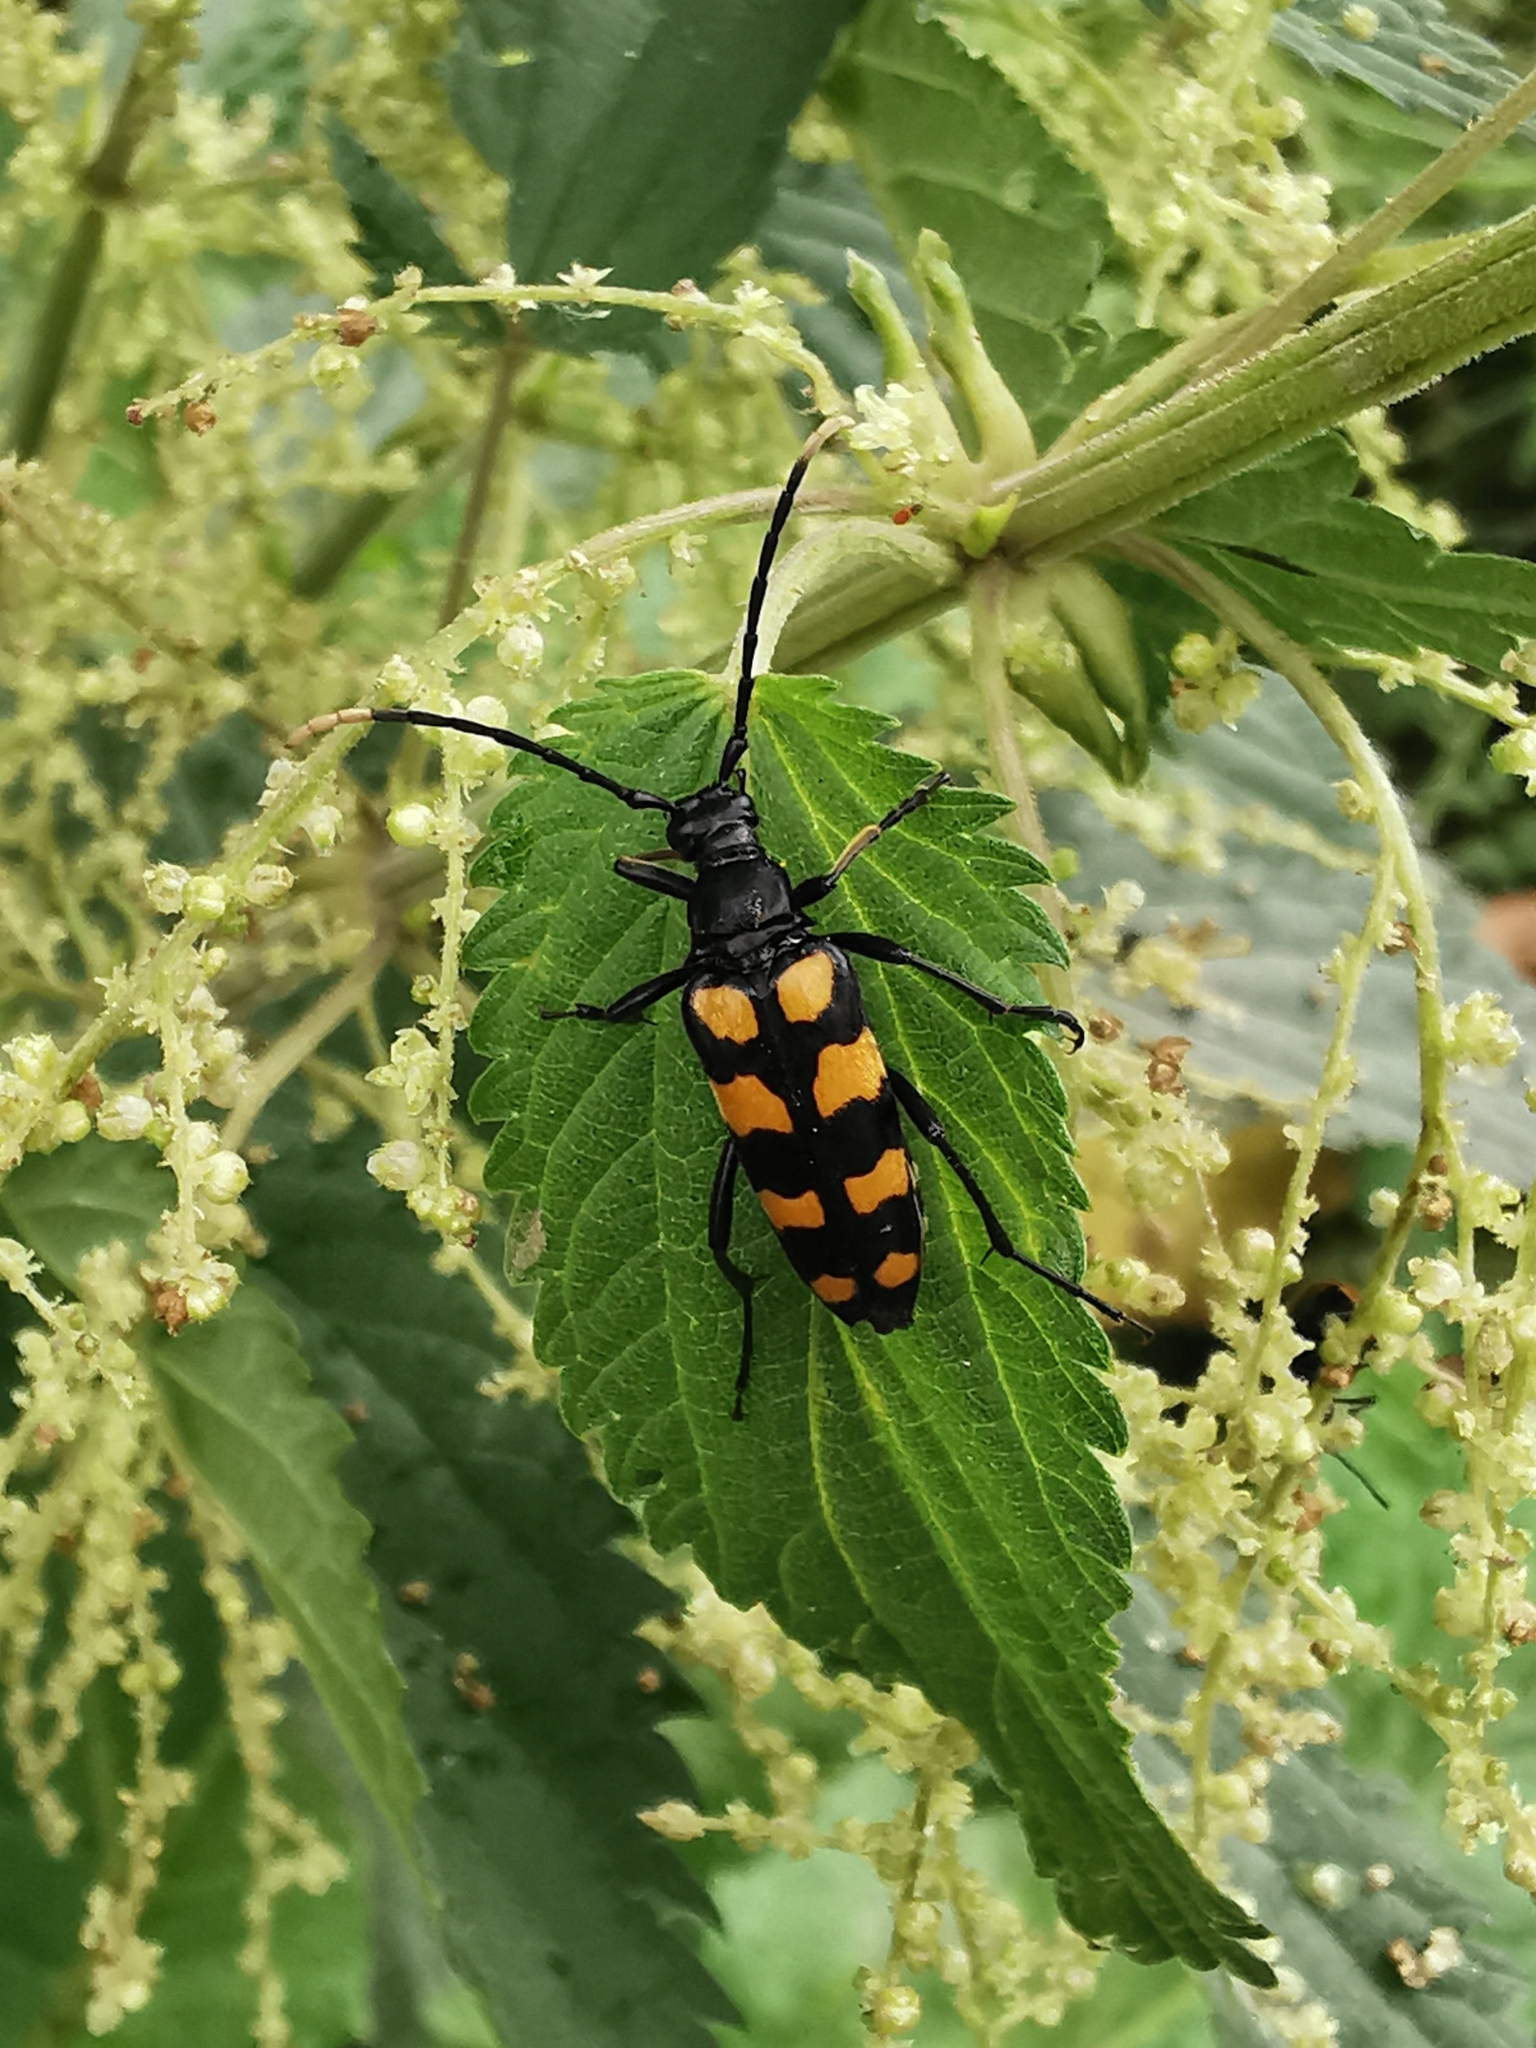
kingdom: Animalia
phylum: Arthropoda
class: Insecta
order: Coleoptera
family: Cerambycidae
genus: Leptura
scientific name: Leptura quadrifasciata
